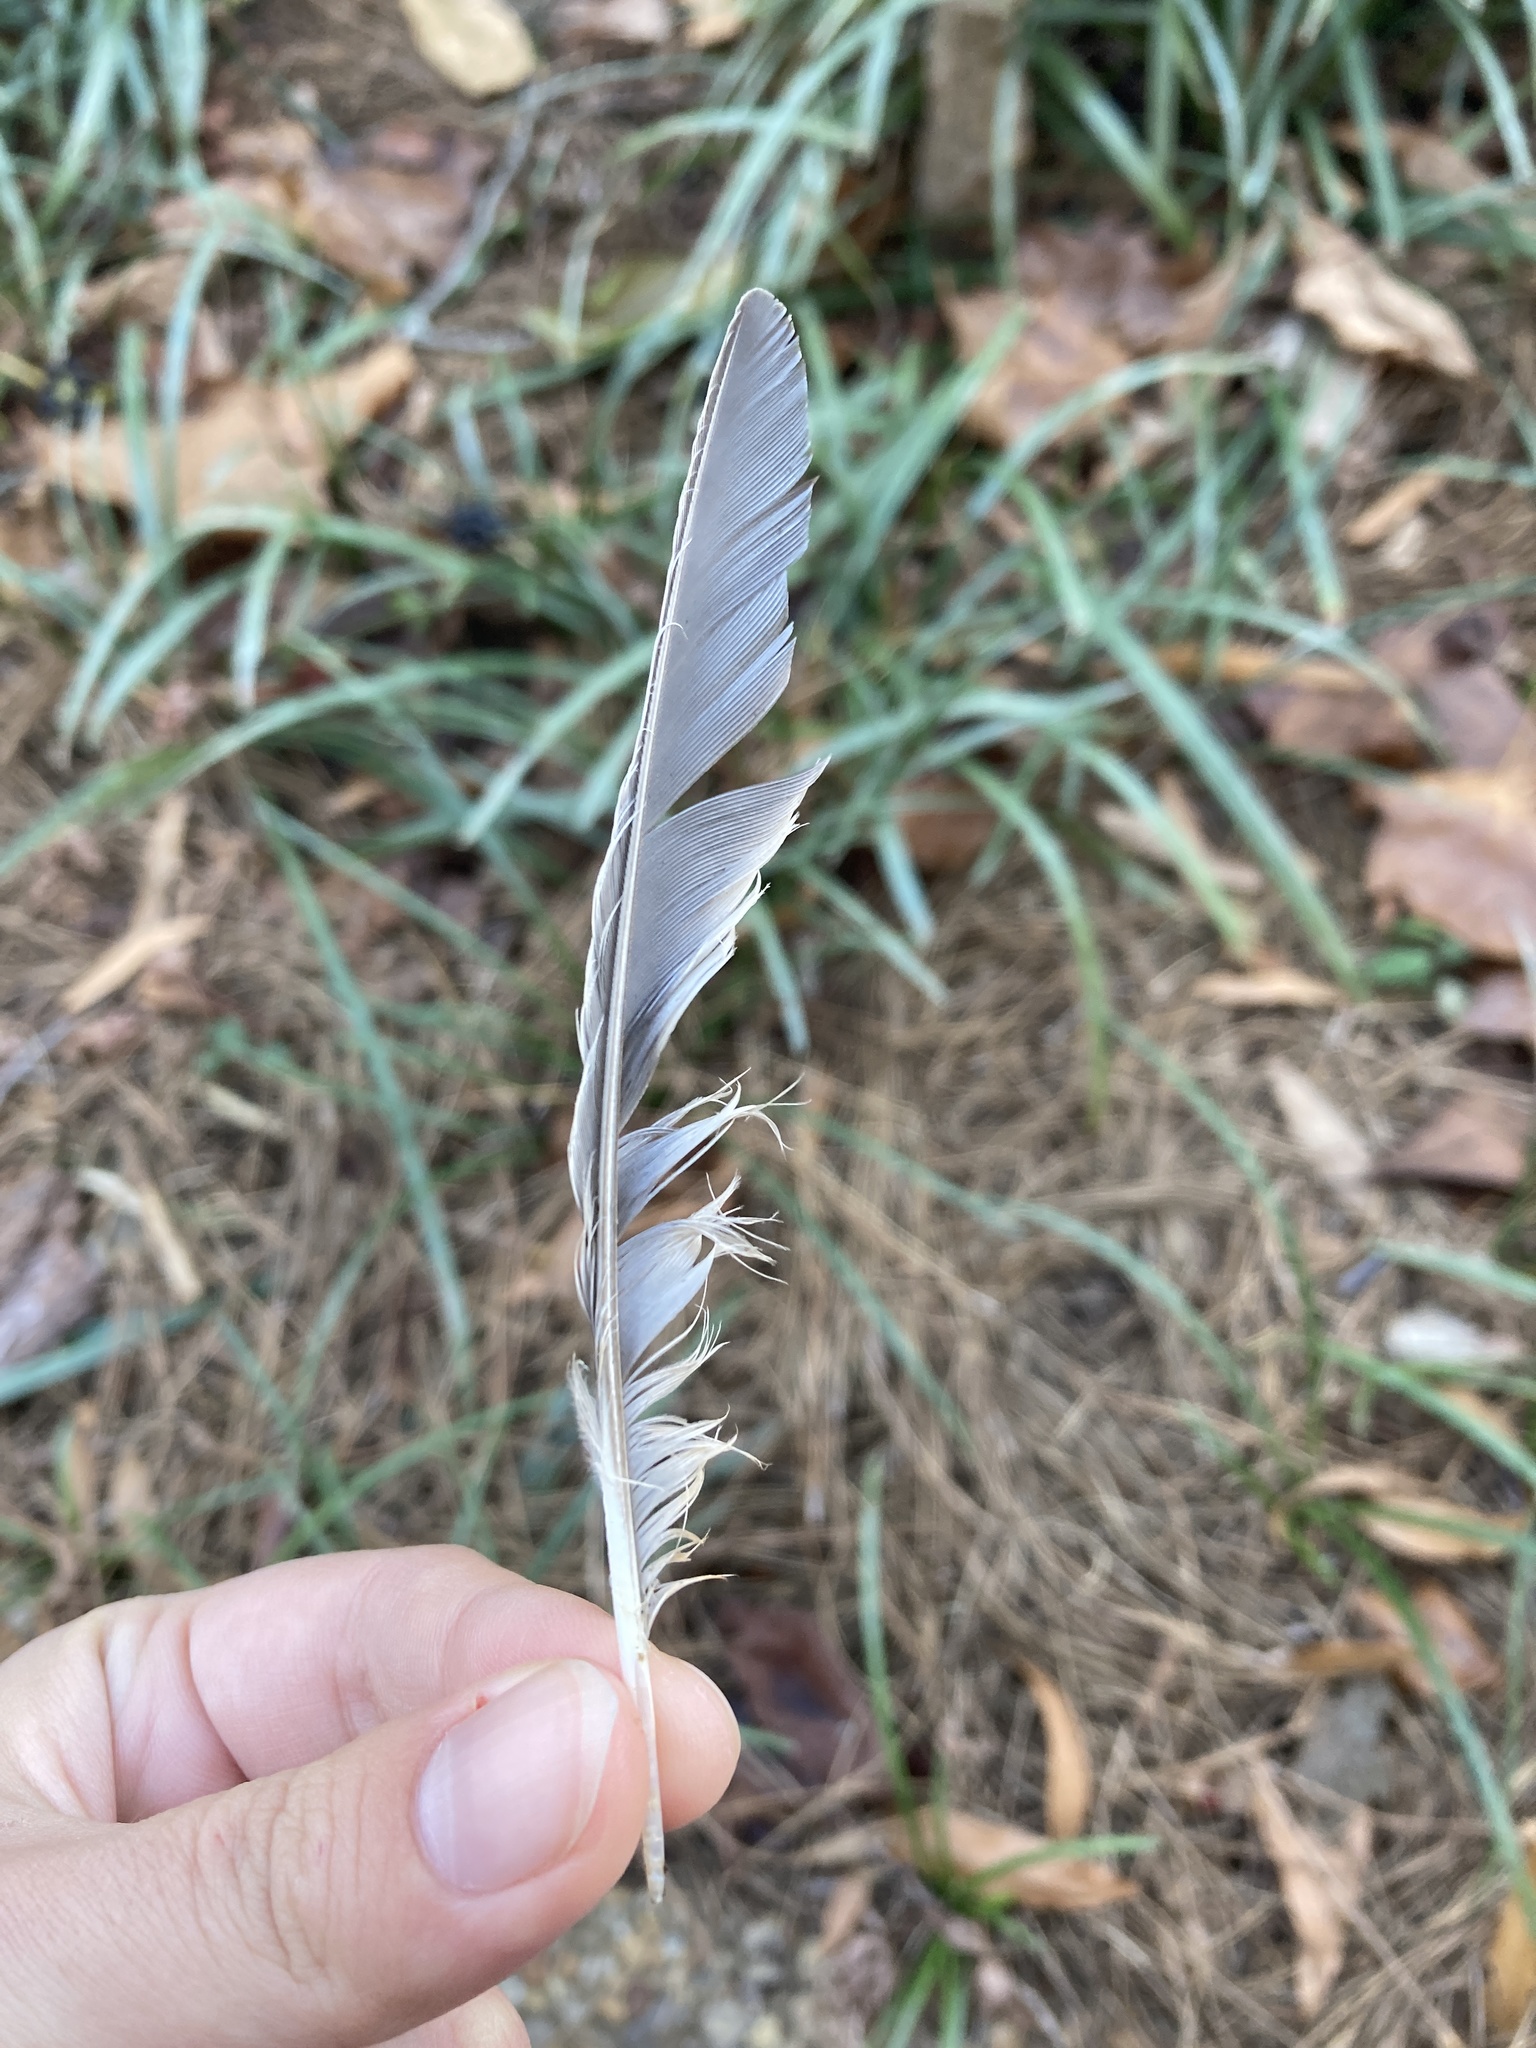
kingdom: Animalia
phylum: Chordata
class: Aves
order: Passeriformes
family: Turdidae
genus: Turdus
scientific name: Turdus migratorius
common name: American robin
